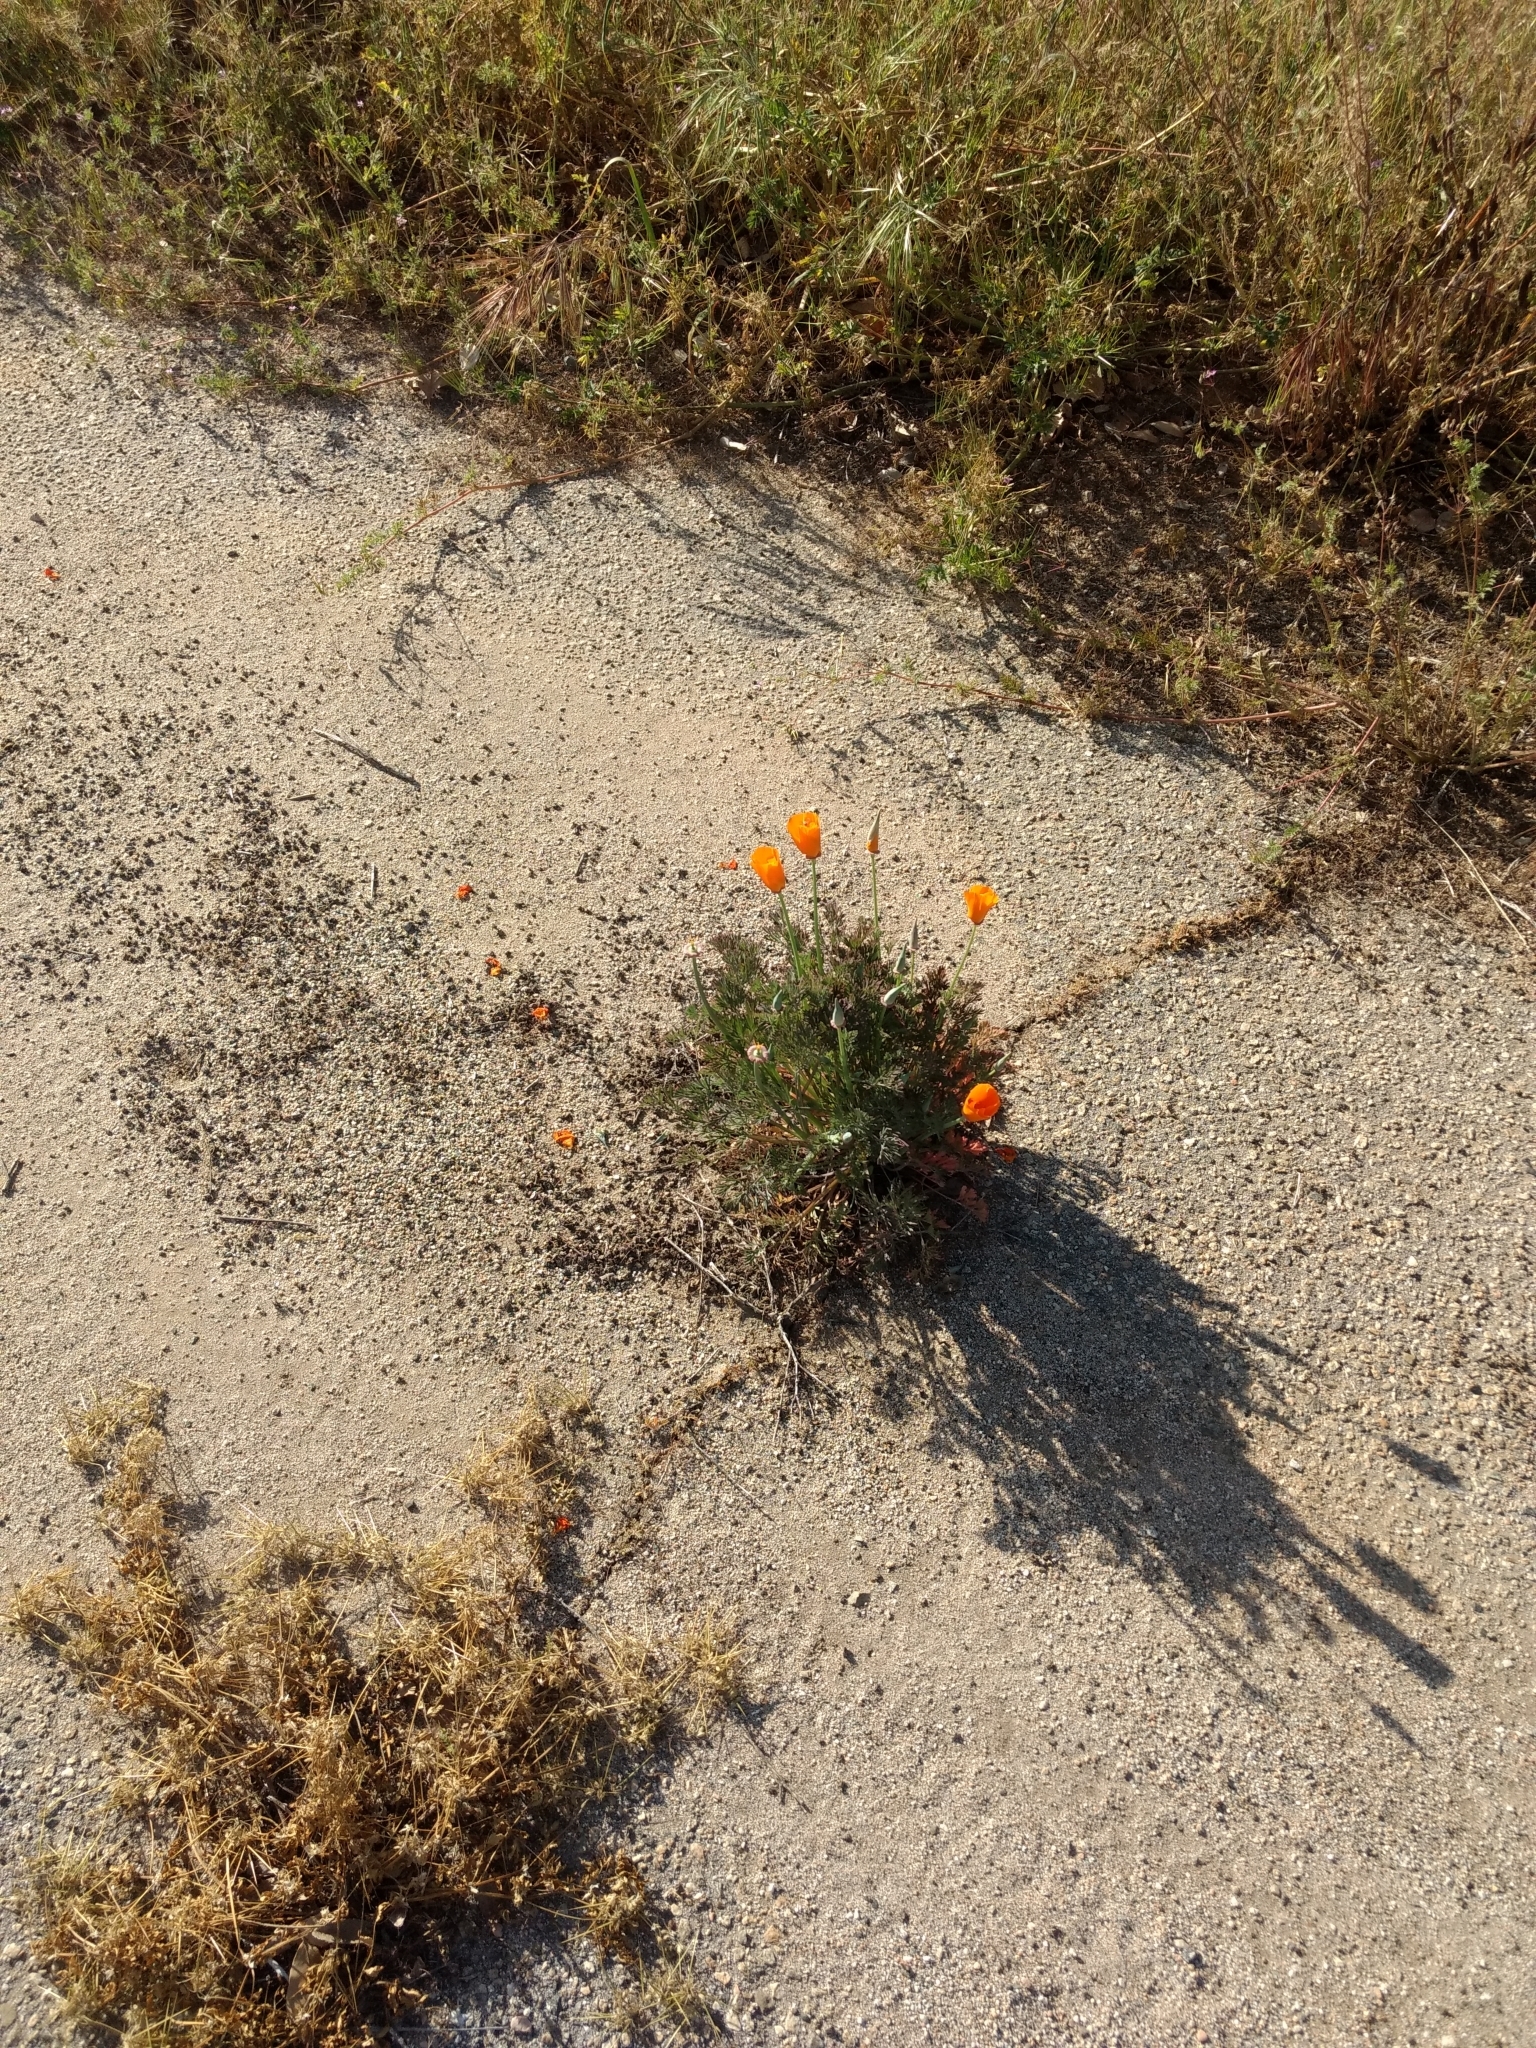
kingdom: Plantae
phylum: Tracheophyta
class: Magnoliopsida
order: Ranunculales
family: Papaveraceae
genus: Eschscholzia
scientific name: Eschscholzia californica
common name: California poppy
